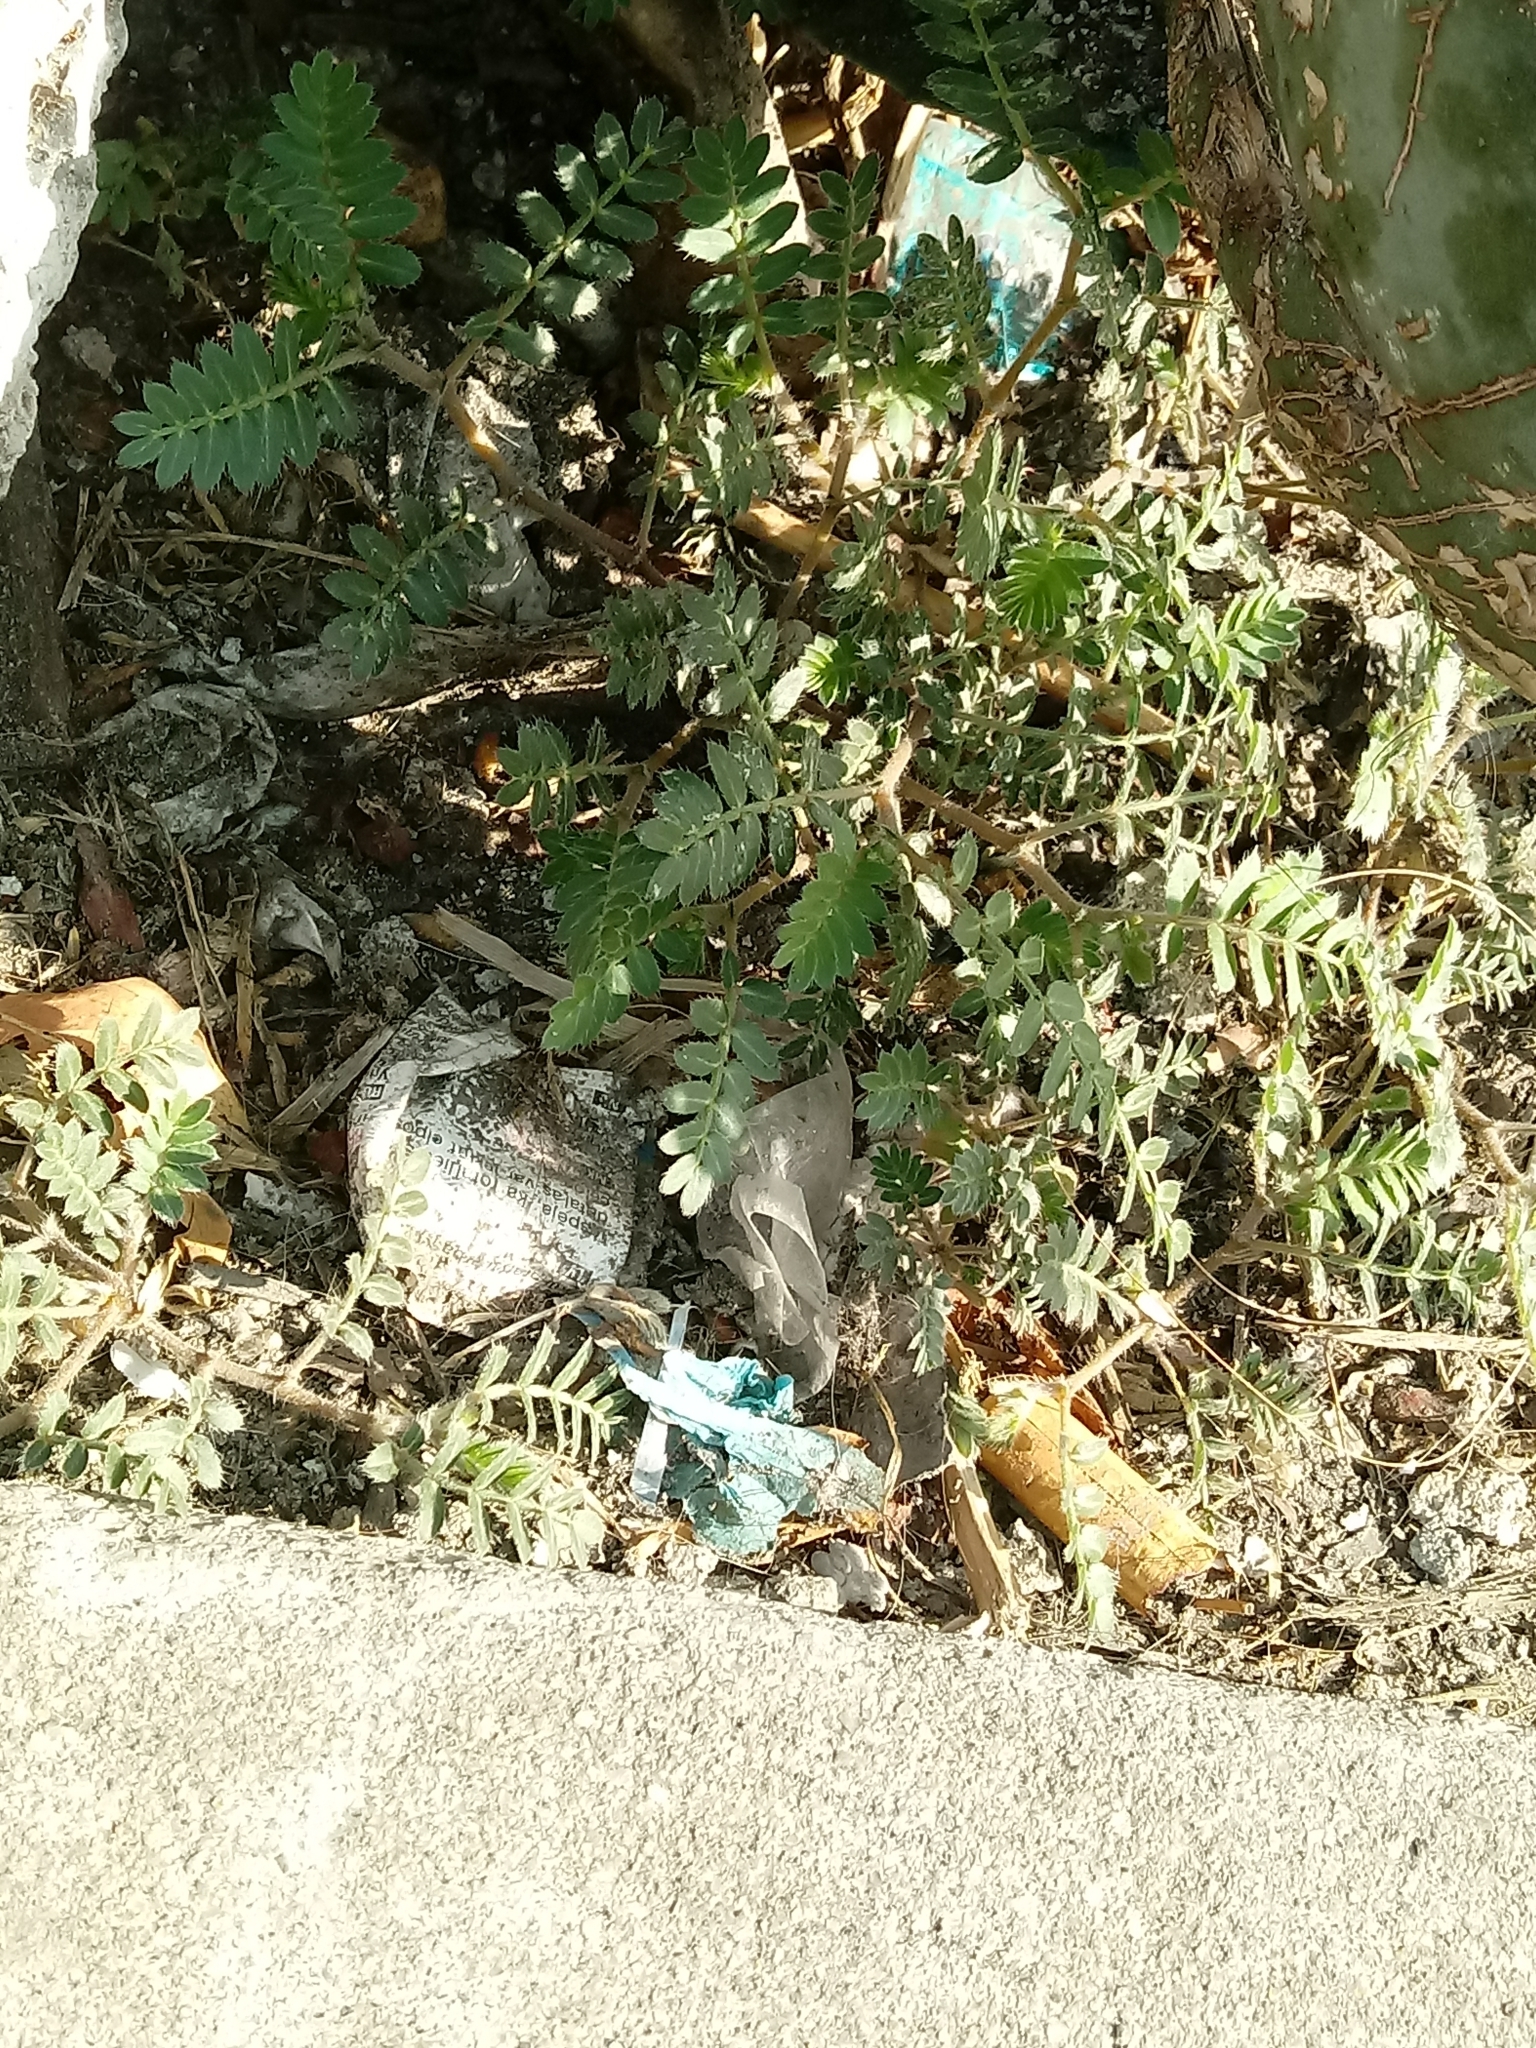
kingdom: Plantae
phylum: Tracheophyta
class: Magnoliopsida
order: Zygophyllales
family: Zygophyllaceae
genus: Tribulus
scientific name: Tribulus terrestris
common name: Puncturevine
